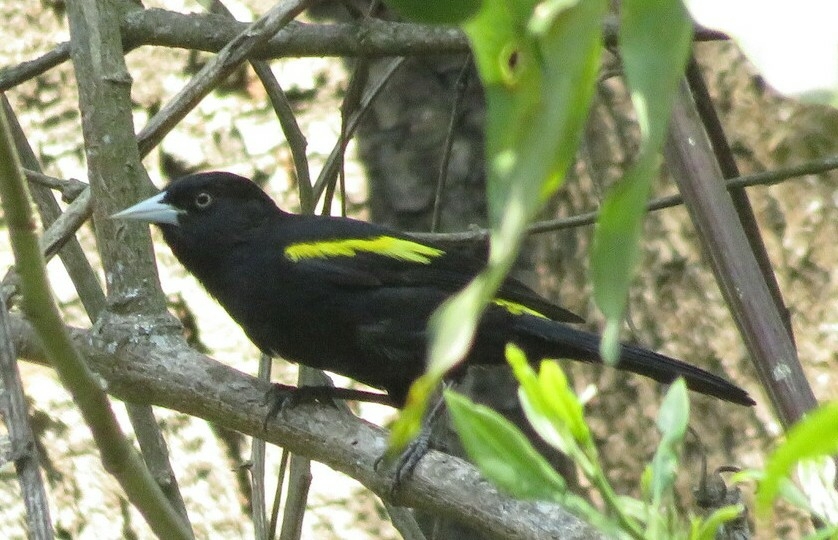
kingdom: Animalia
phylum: Chordata
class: Aves
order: Passeriformes
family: Icteridae
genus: Cacicus
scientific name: Cacicus chrysopterus
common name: Golden-winged cacique
